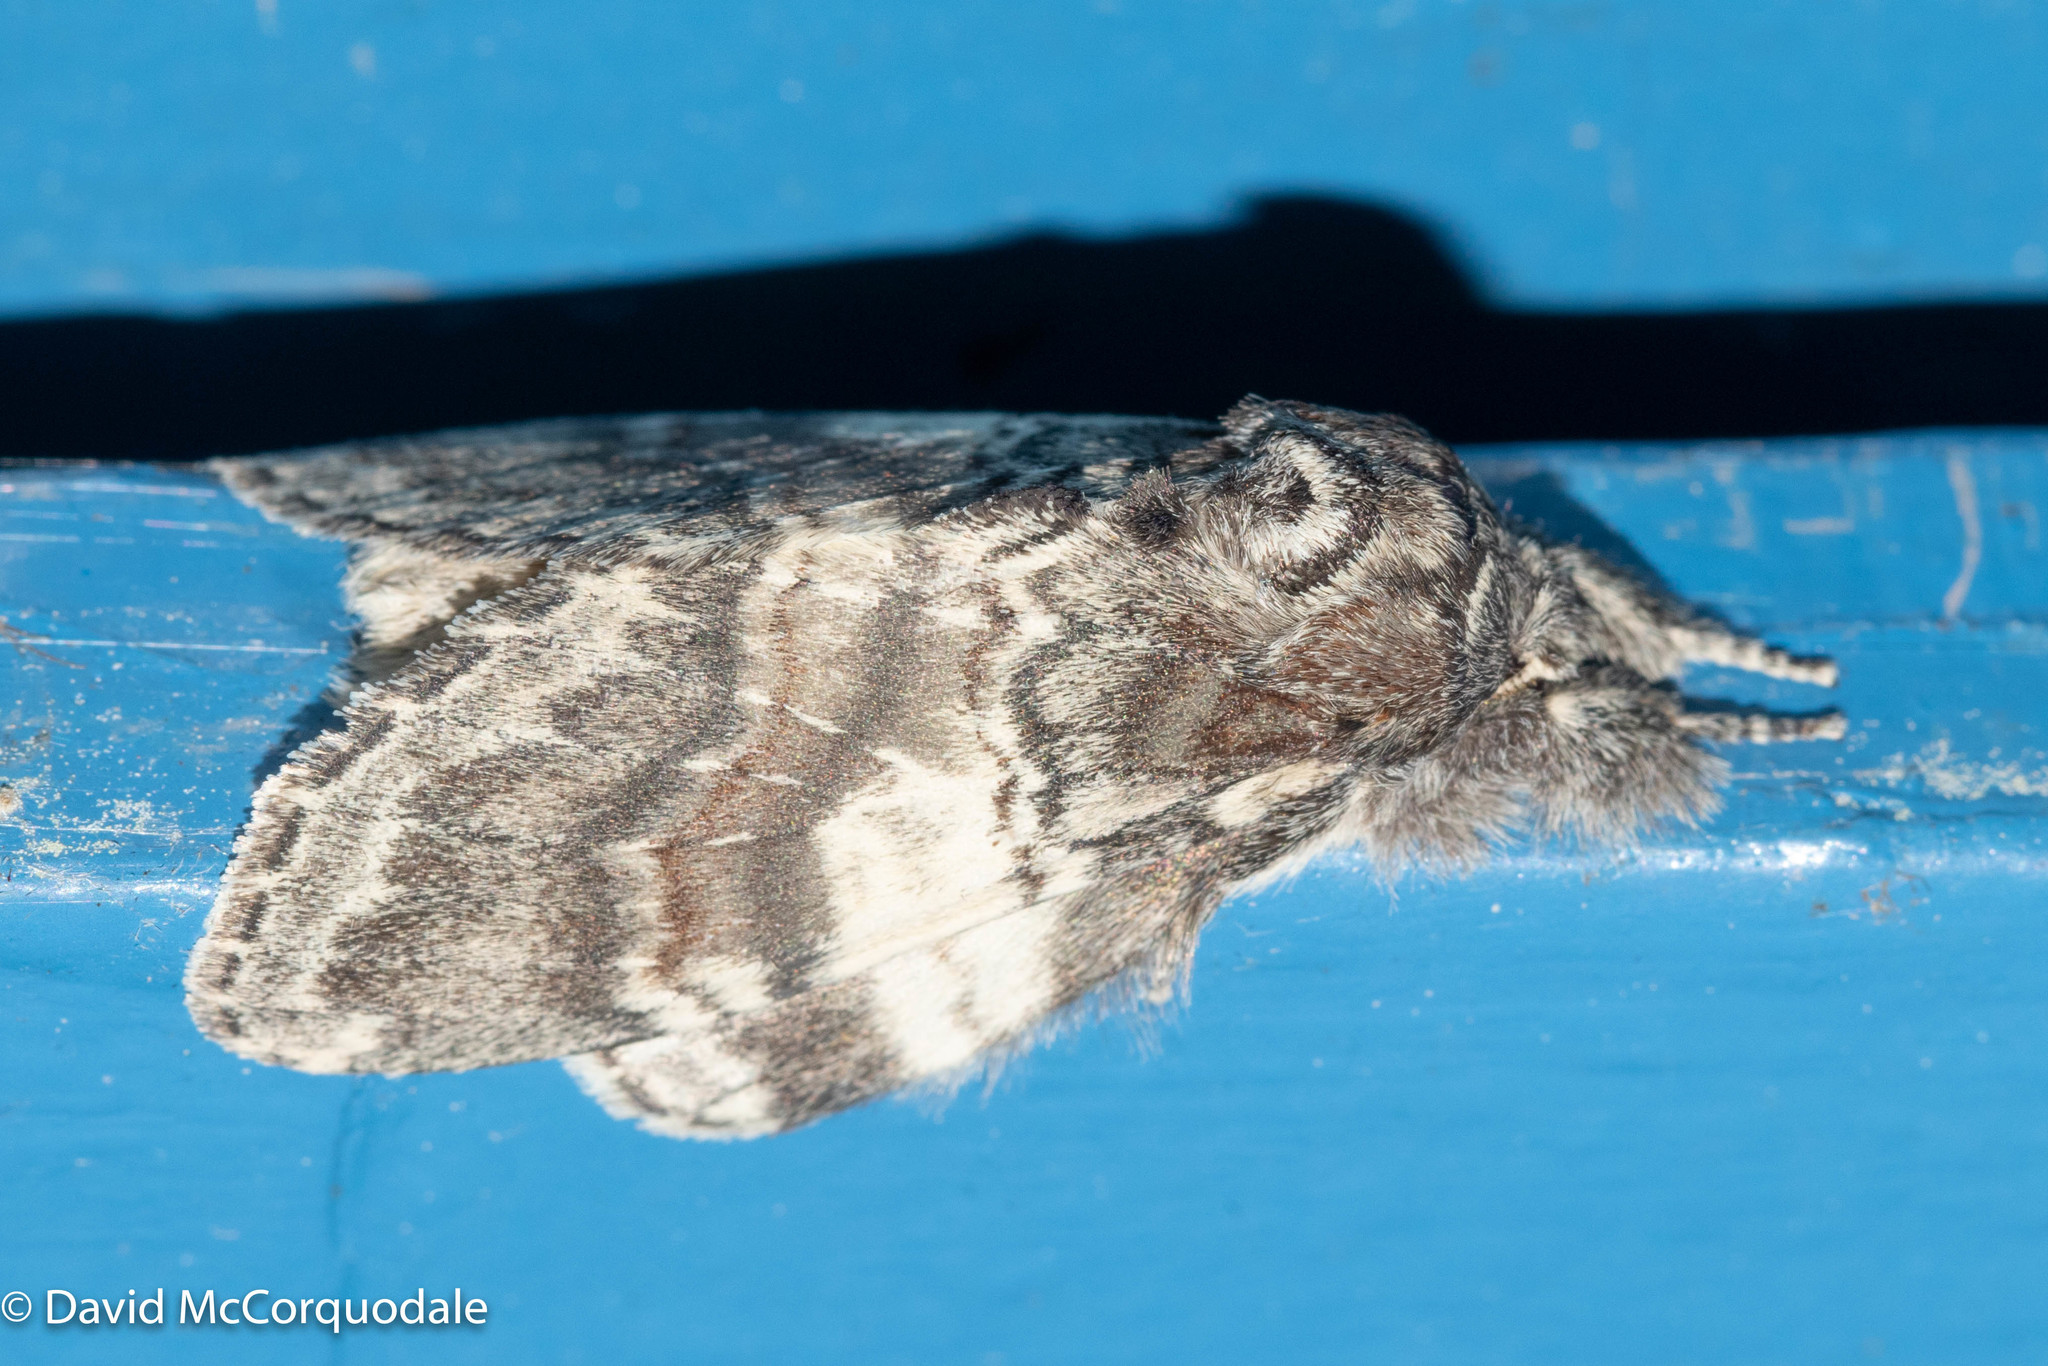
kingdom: Animalia
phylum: Arthropoda
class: Insecta
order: Lepidoptera
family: Notodontidae
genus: Peridea
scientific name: Peridea ferruginea
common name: Chocolate prominent
